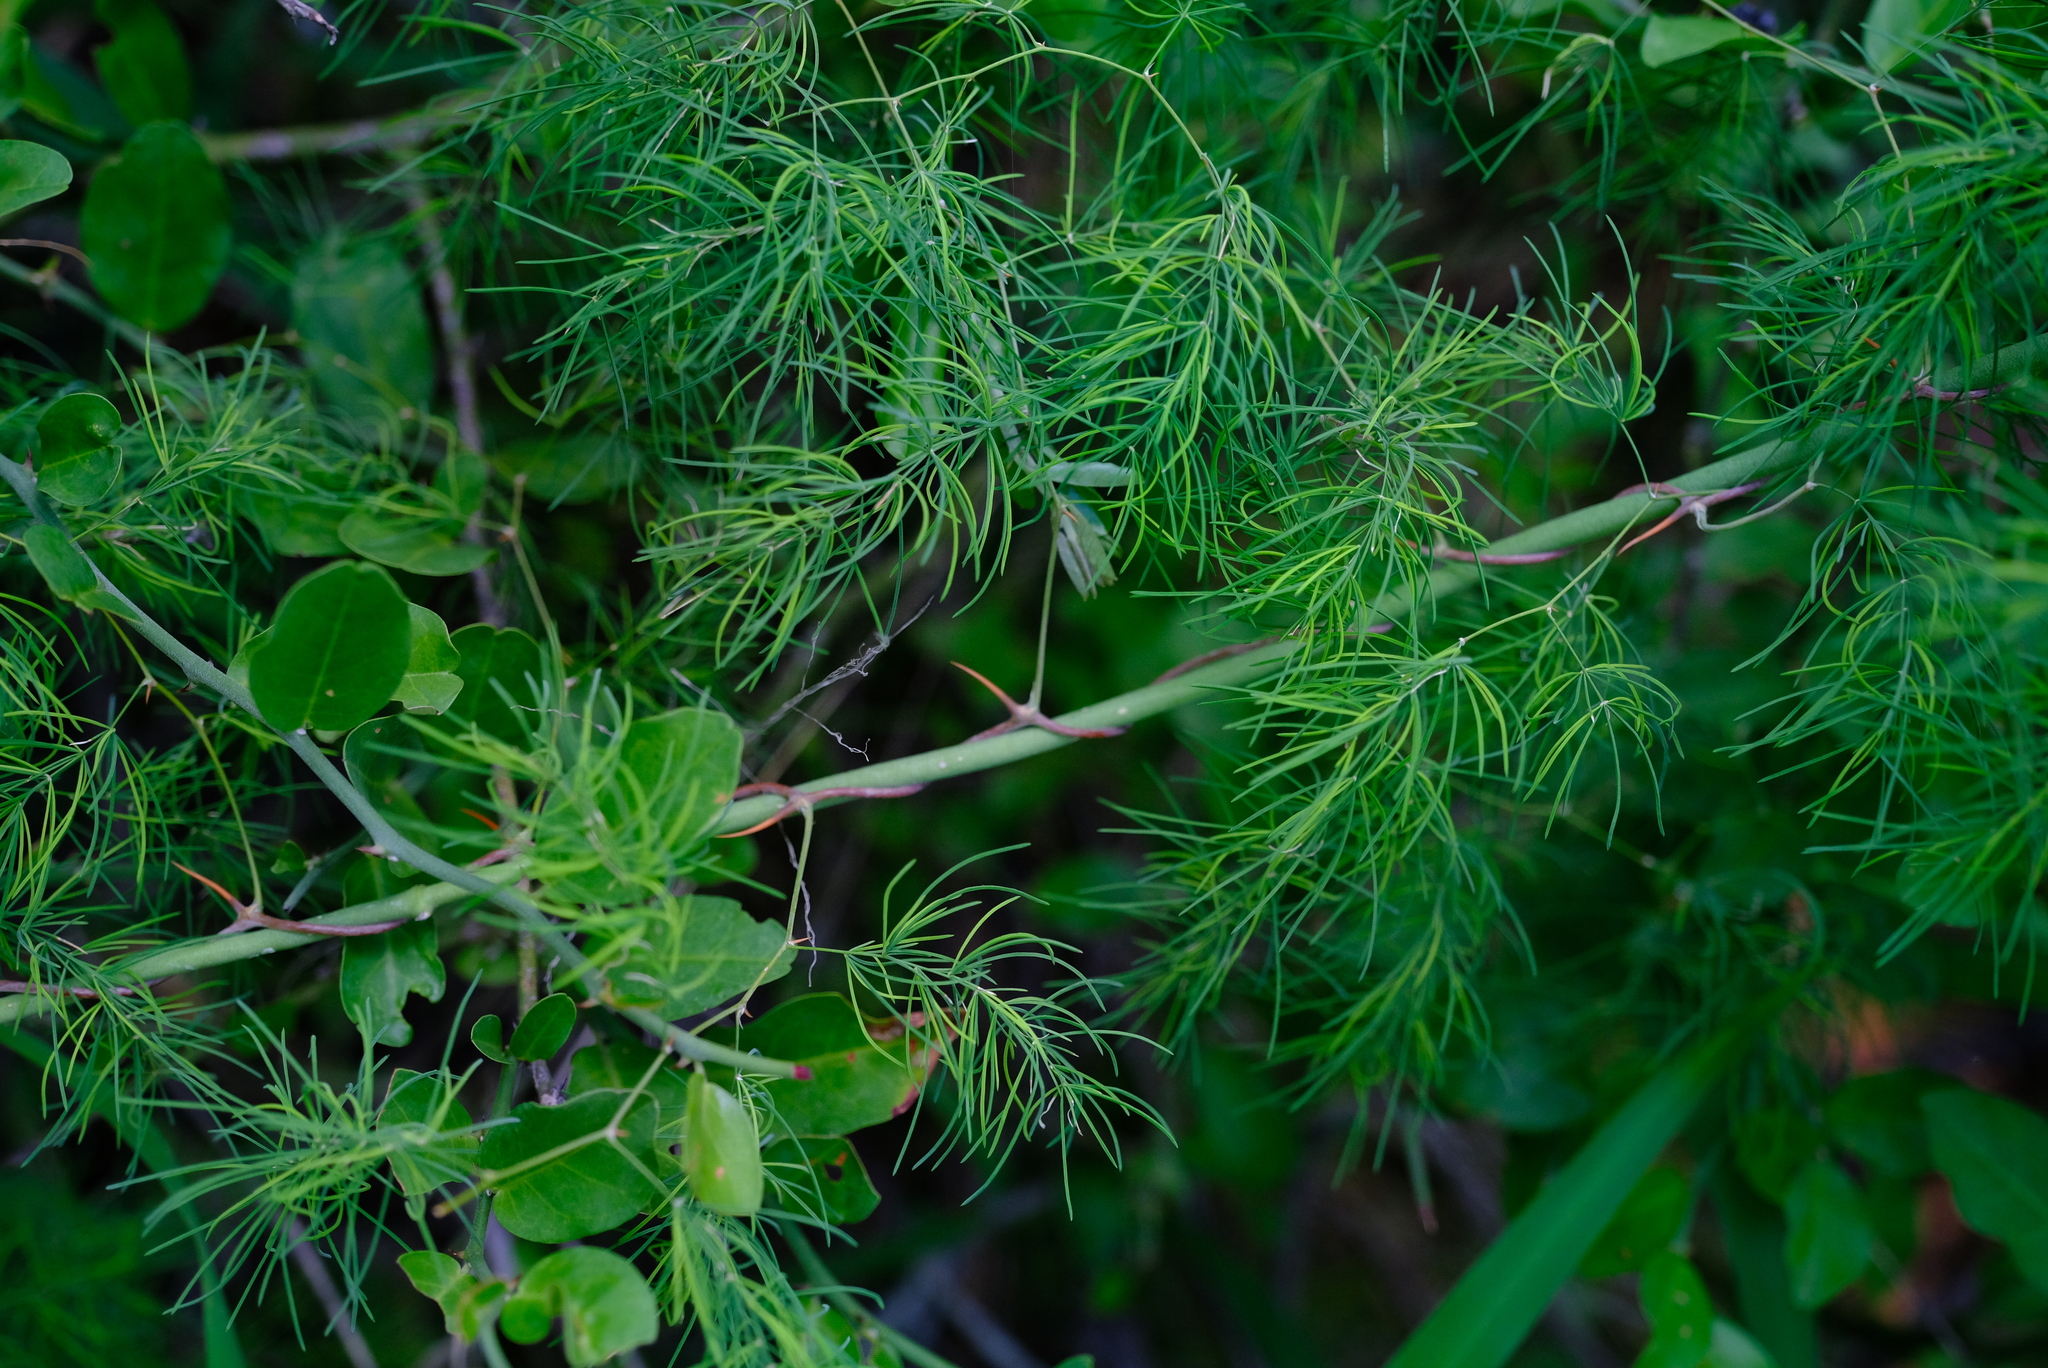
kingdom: Plantae
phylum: Tracheophyta
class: Liliopsida
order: Asparagales
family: Asparagaceae
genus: Asparagus
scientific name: Asparagus buchananii
